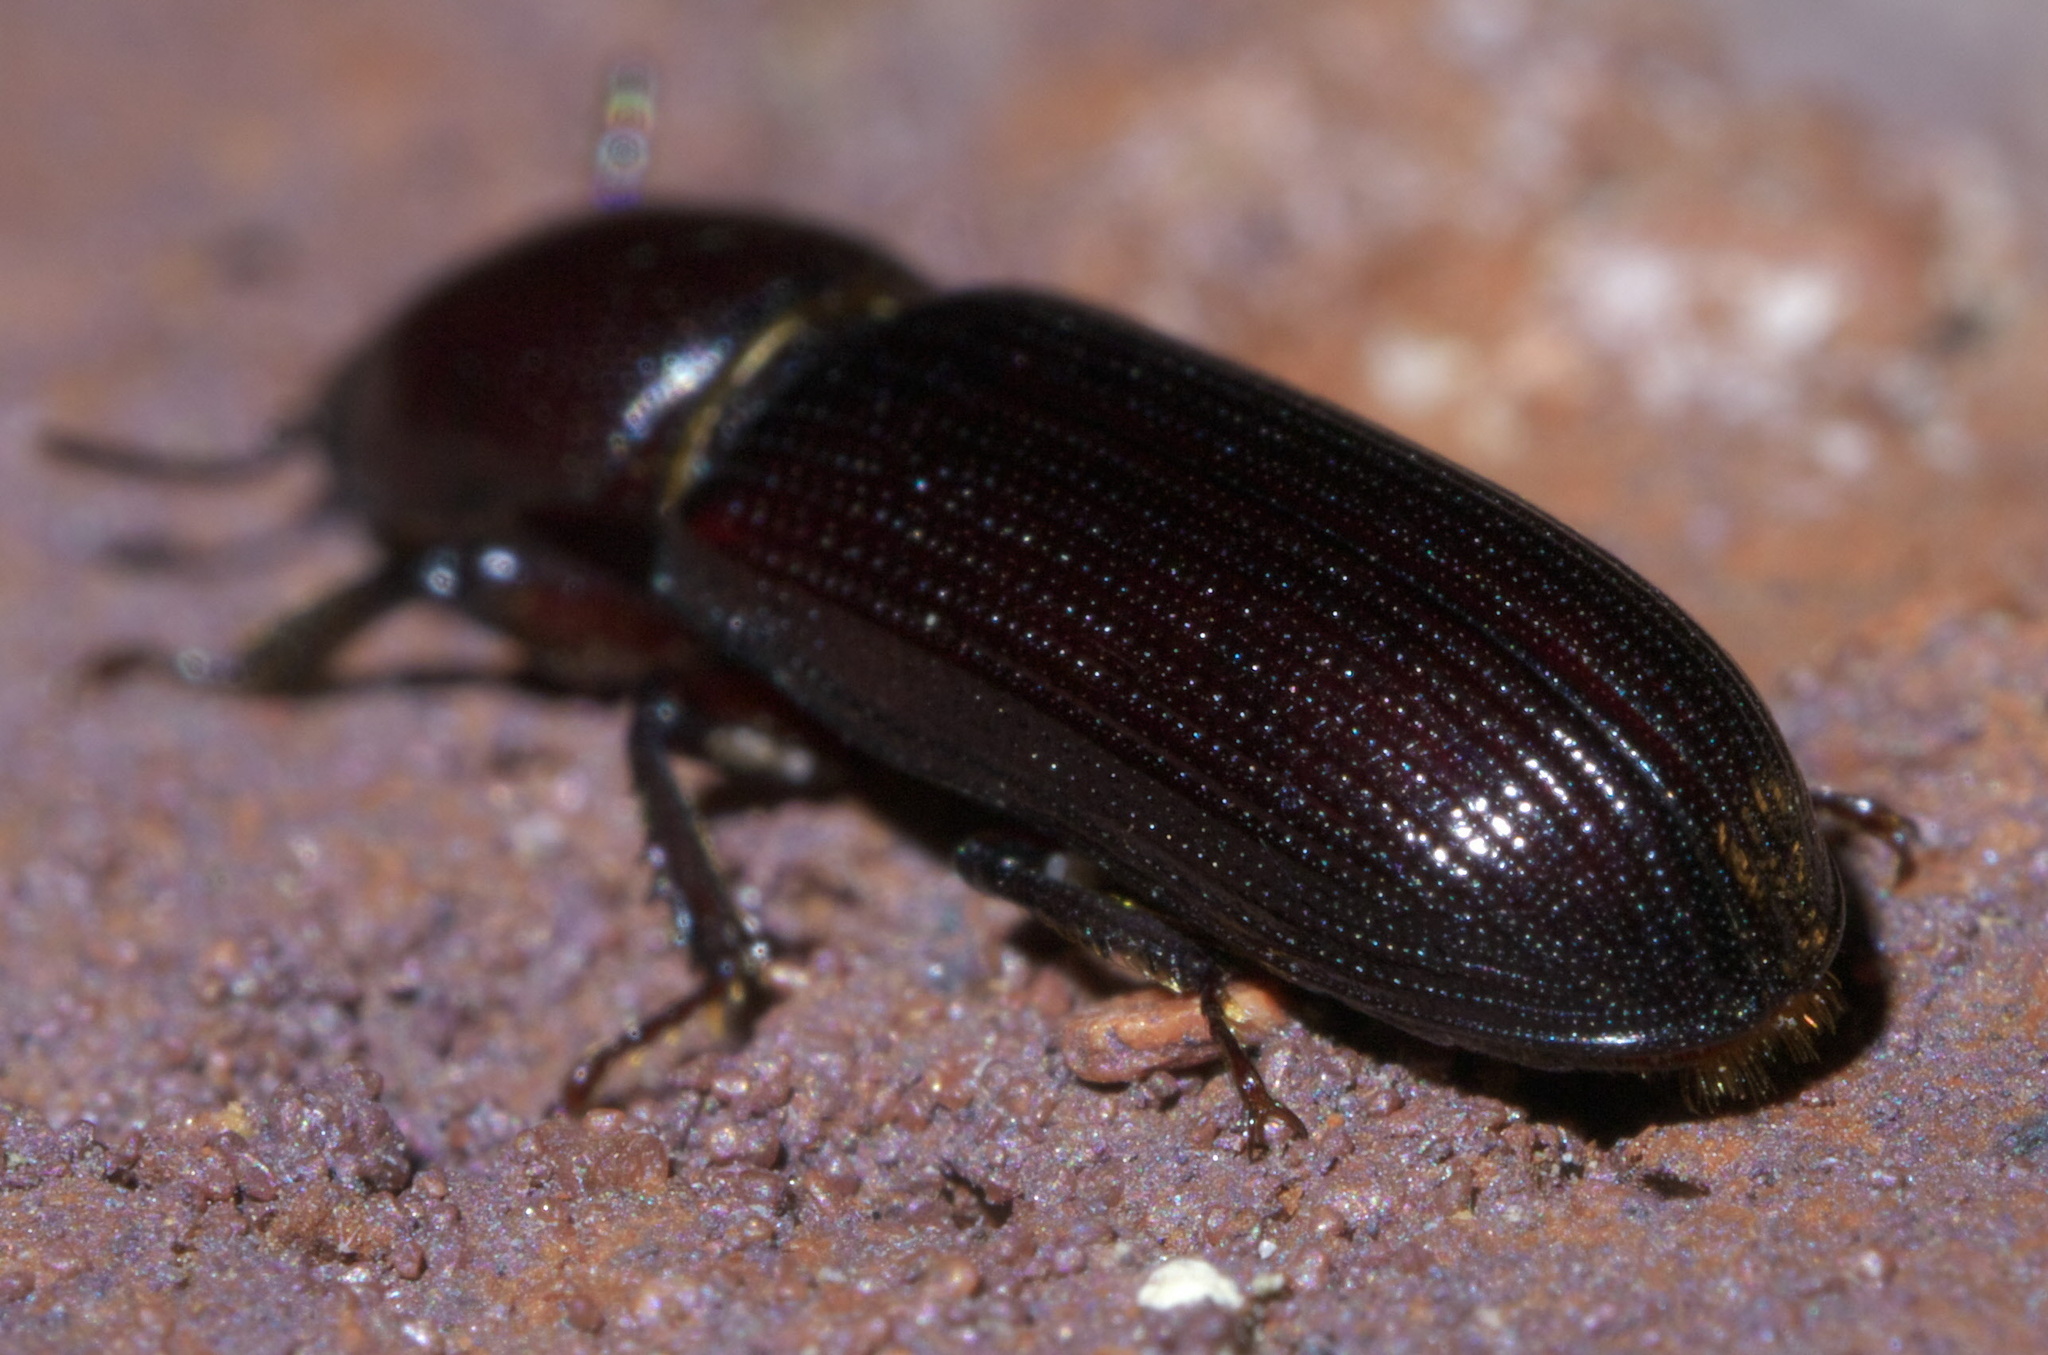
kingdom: Animalia
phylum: Arthropoda
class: Insecta
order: Coleoptera
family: Trogossitidae
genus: Airora
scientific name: Airora cylindrica
